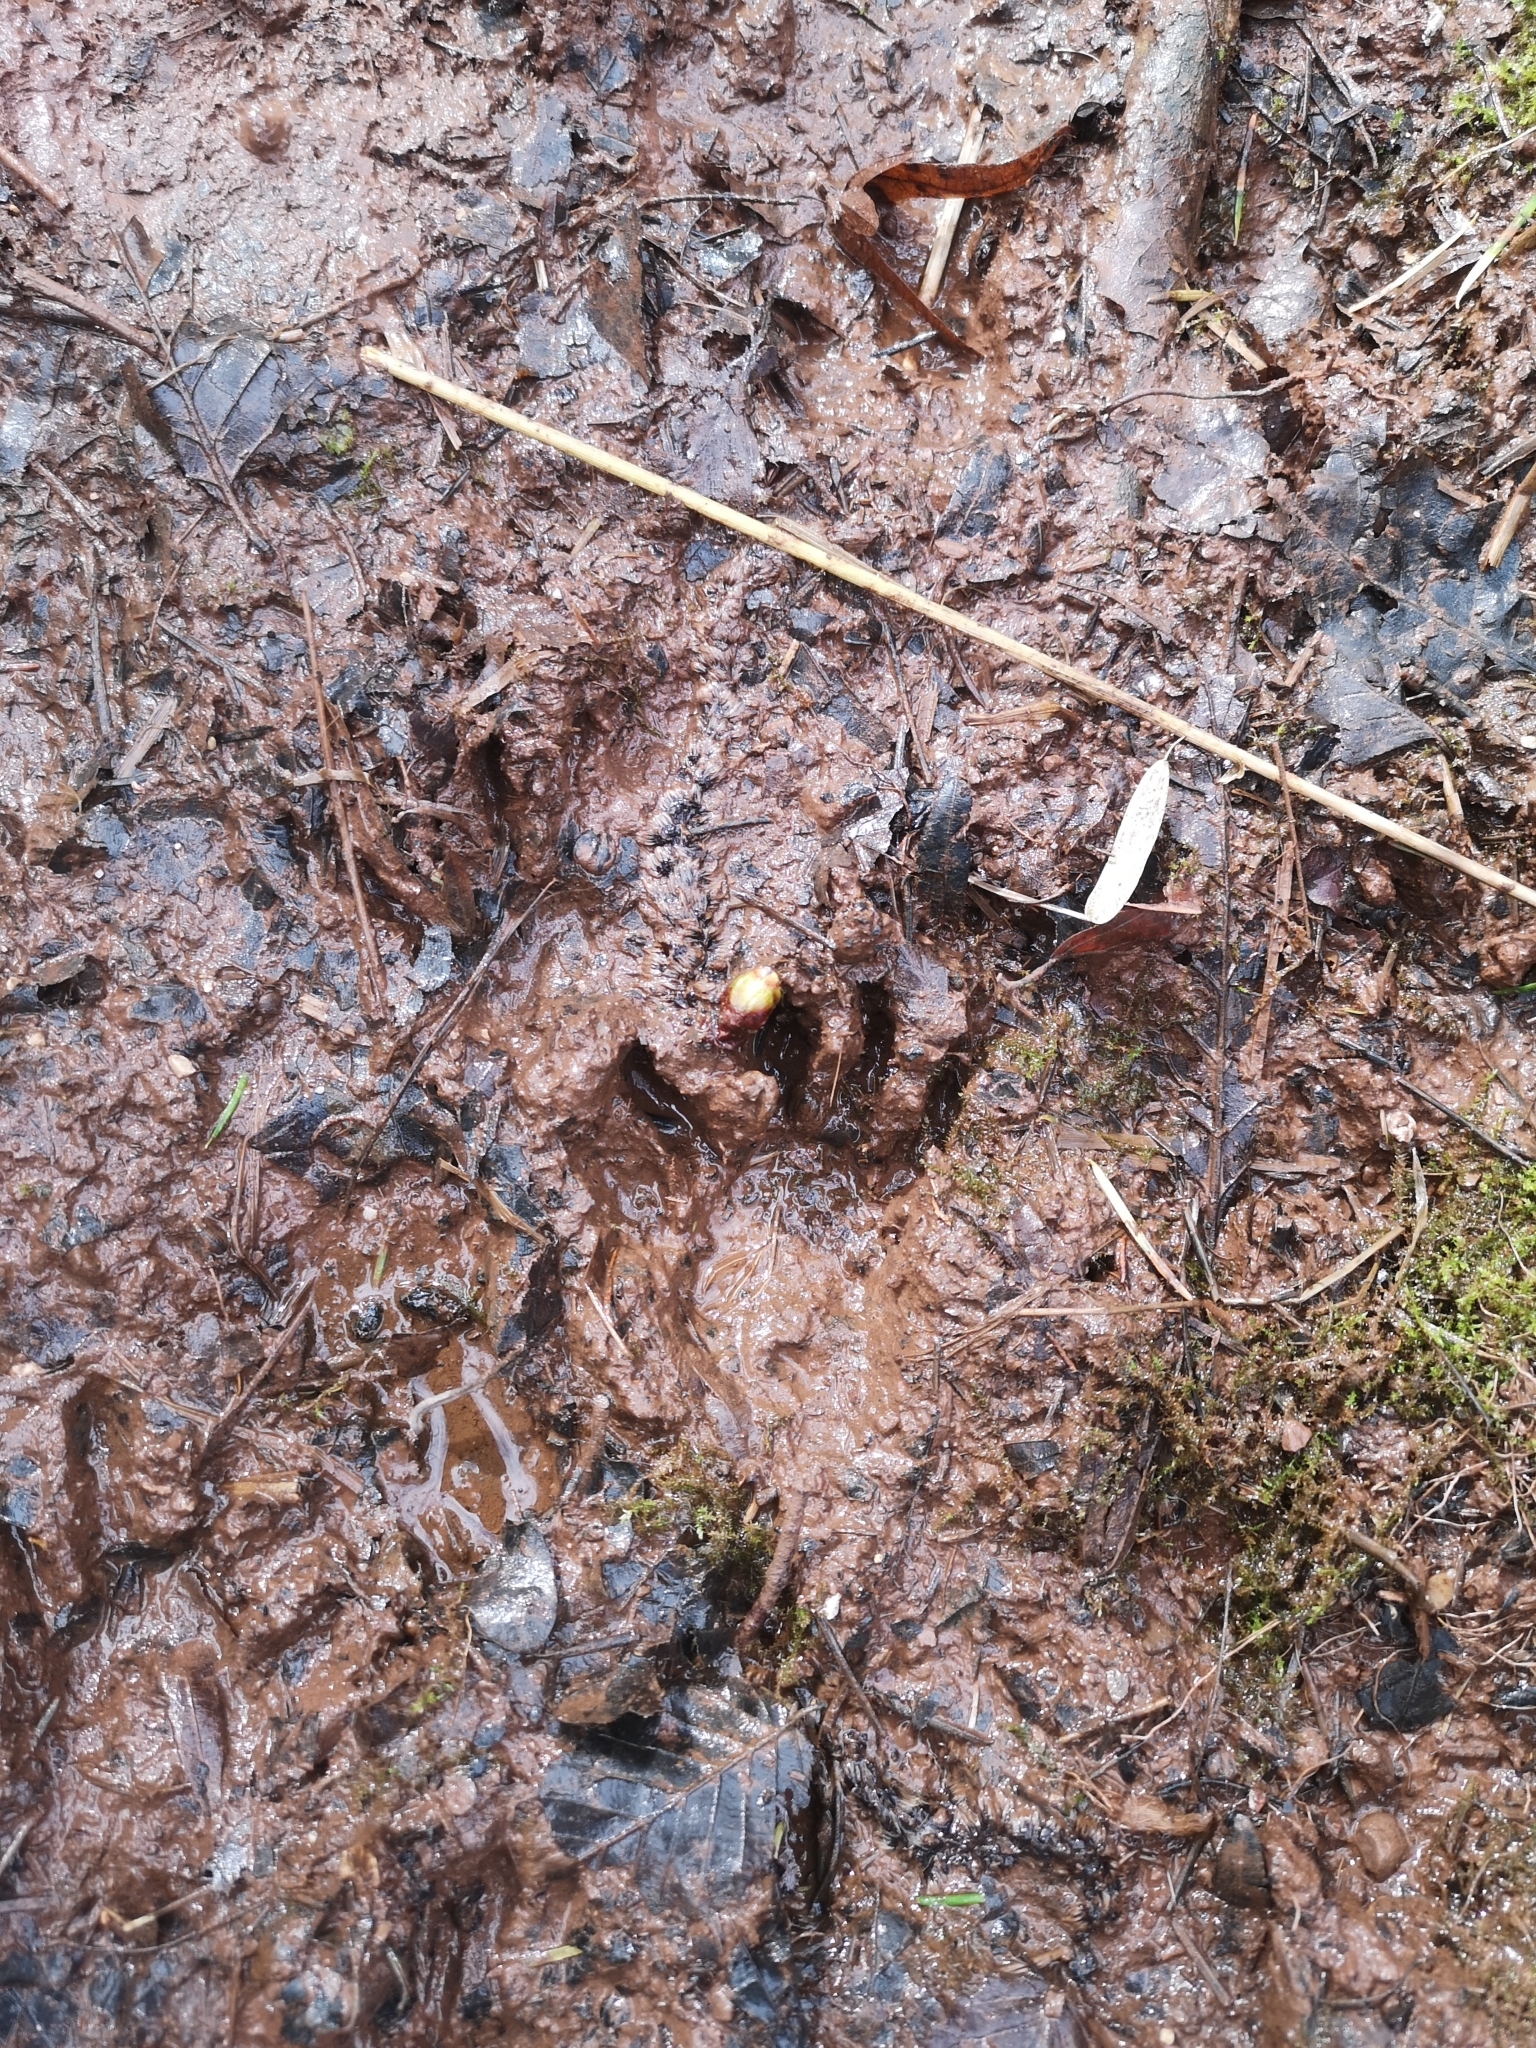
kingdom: Animalia
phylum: Chordata
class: Mammalia
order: Carnivora
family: Procyonidae
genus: Procyon
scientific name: Procyon lotor
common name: Raccoon
